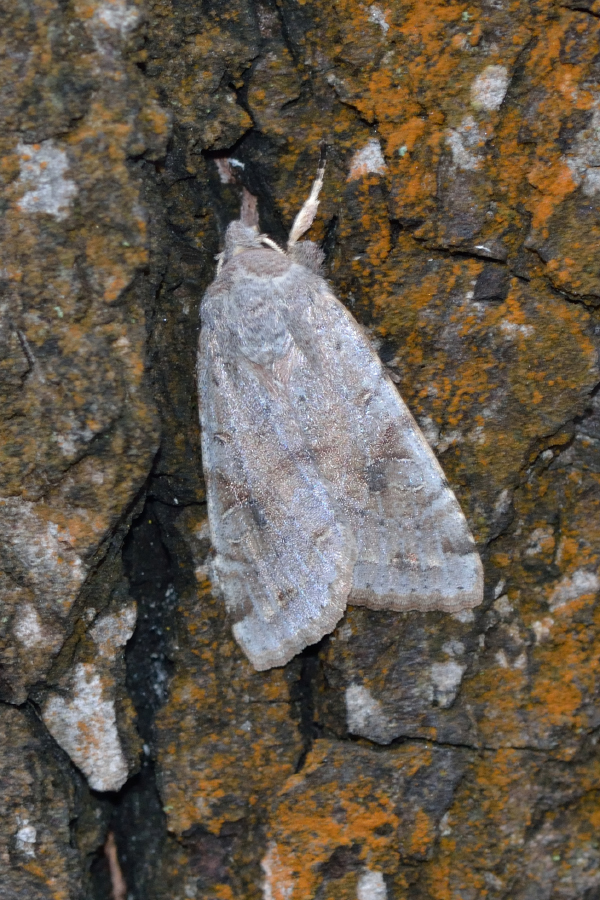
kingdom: Animalia
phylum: Arthropoda
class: Insecta
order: Lepidoptera
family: Noctuidae
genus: Orthosia
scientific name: Orthosia incerta
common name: Clouded drab
